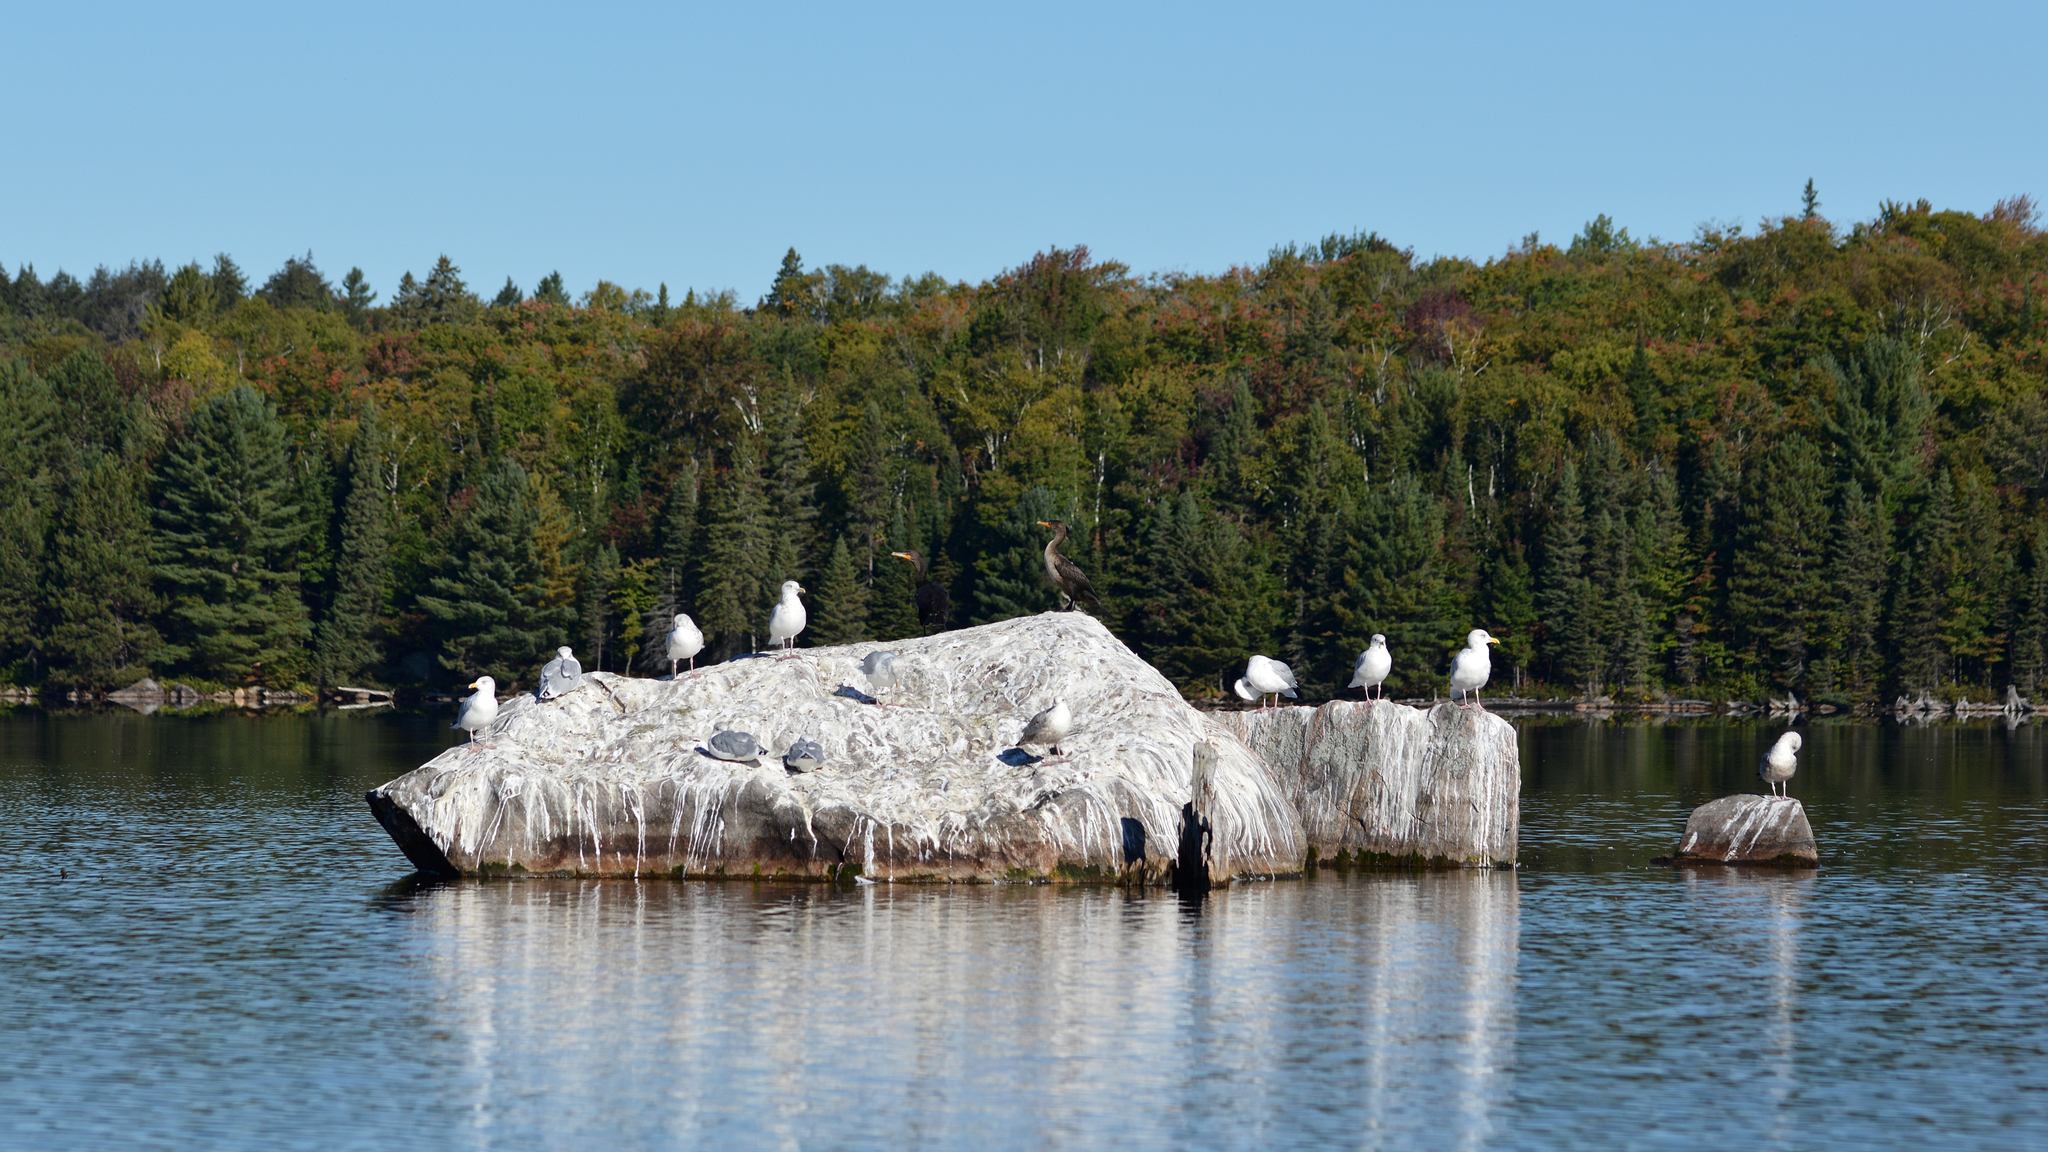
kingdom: Animalia
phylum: Chordata
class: Aves
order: Charadriiformes
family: Laridae
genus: Larus
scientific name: Larus smithsonianus
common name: American herring gull
